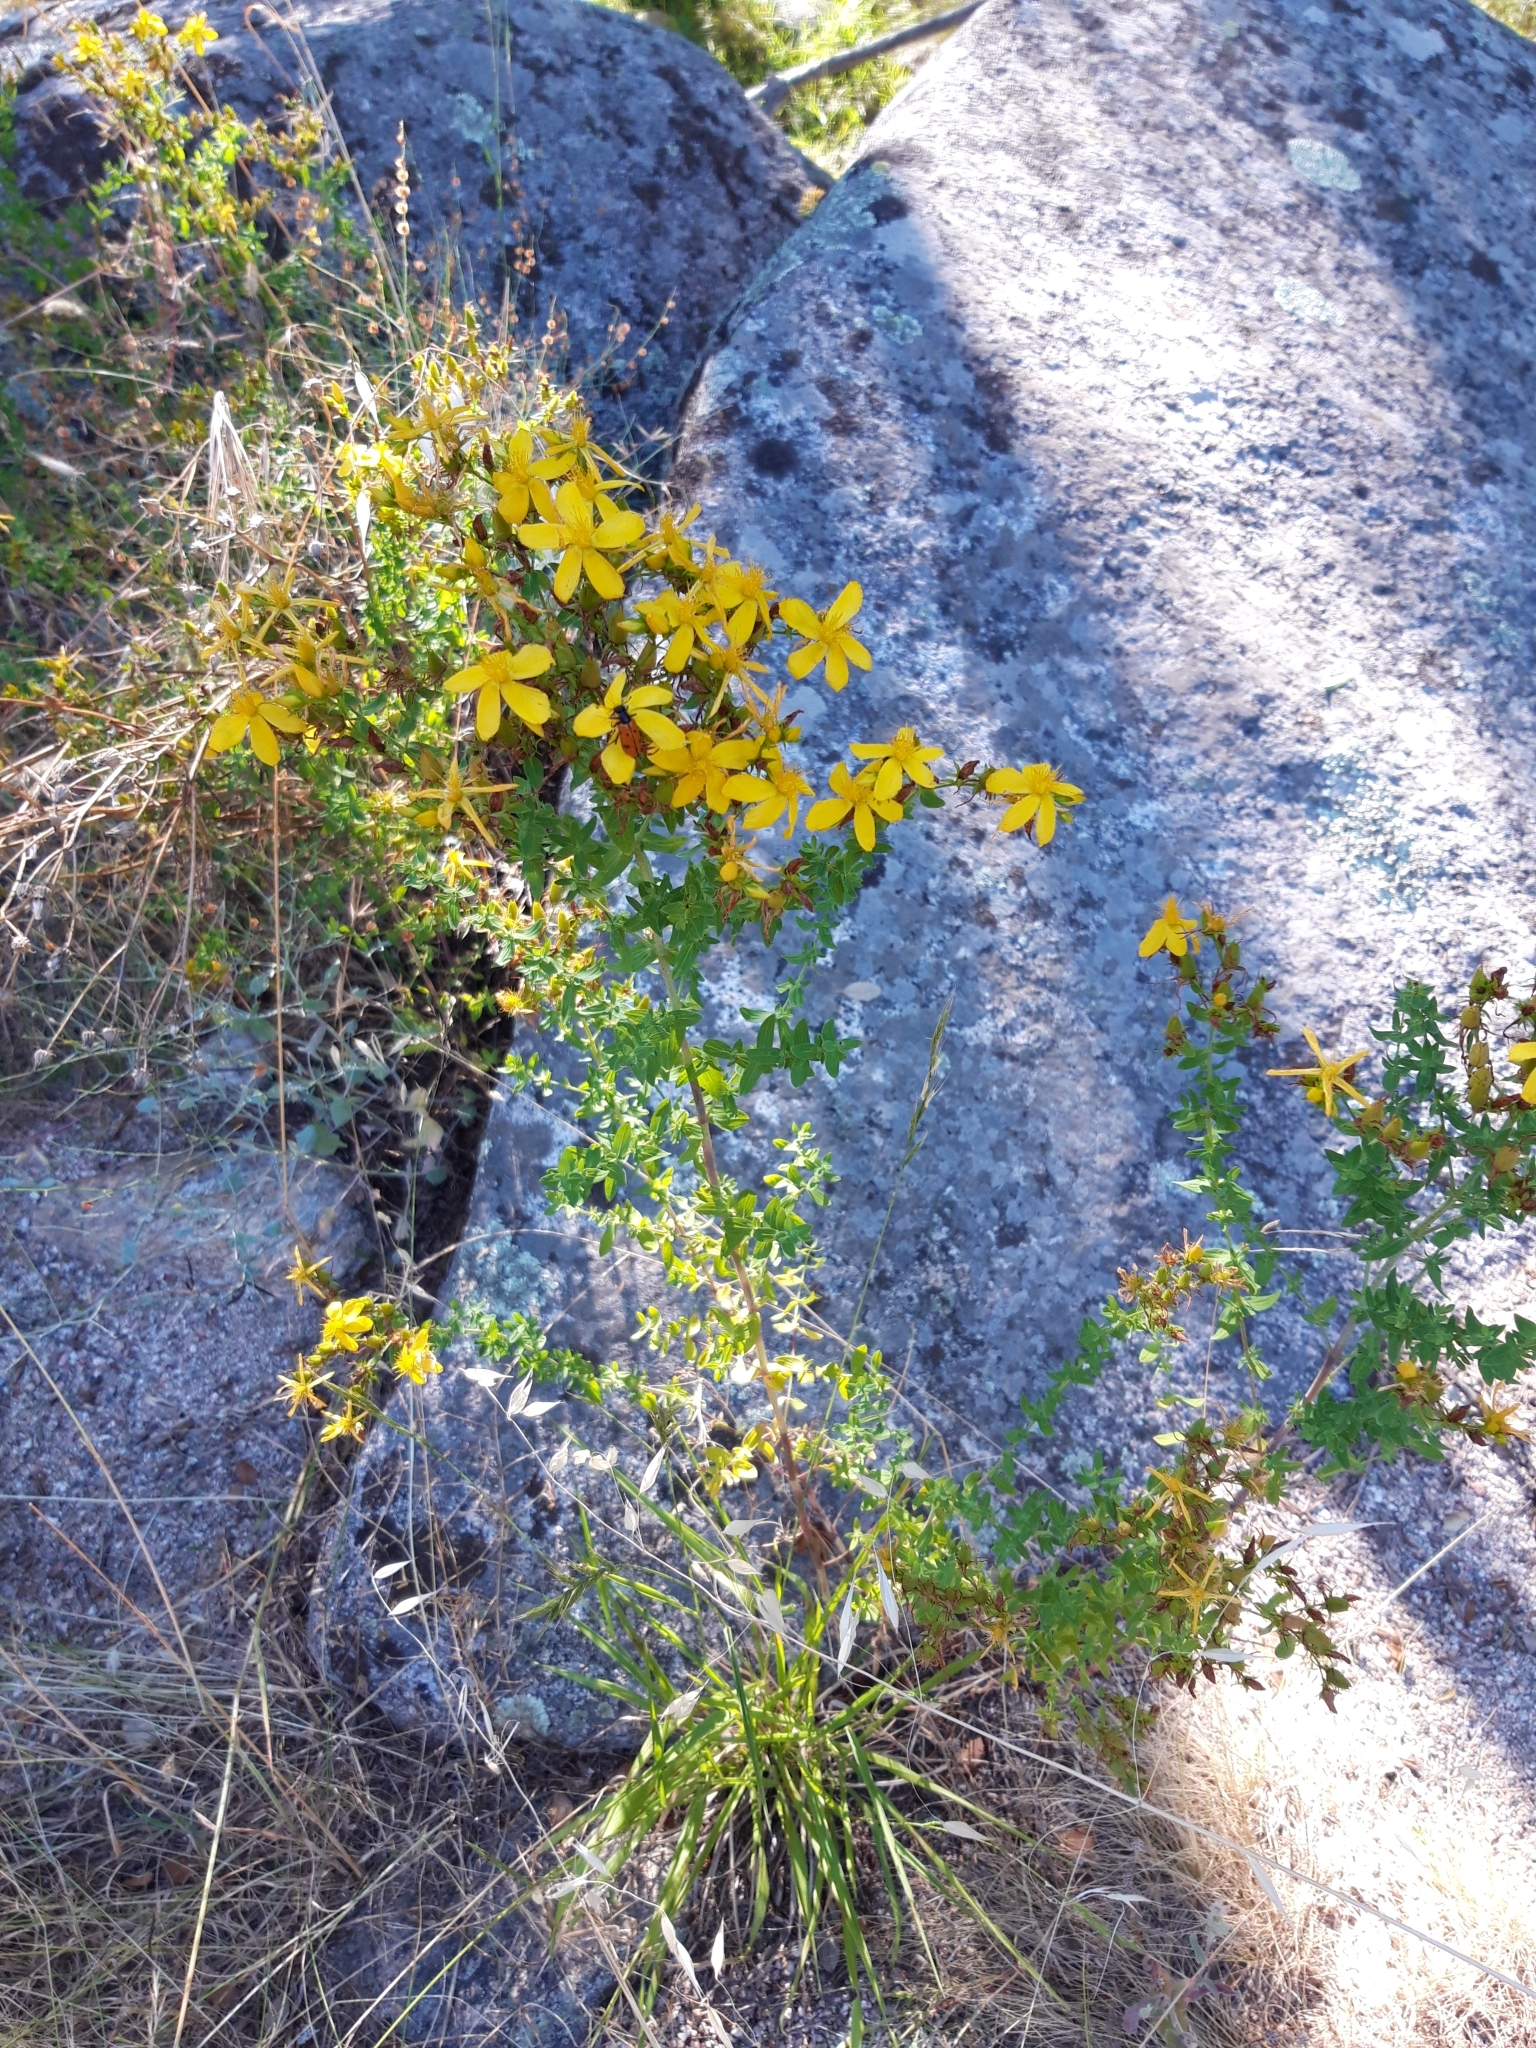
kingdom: Plantae
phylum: Tracheophyta
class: Magnoliopsida
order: Malpighiales
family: Hypericaceae
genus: Hypericum
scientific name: Hypericum perforatum
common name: Common st. johnswort
